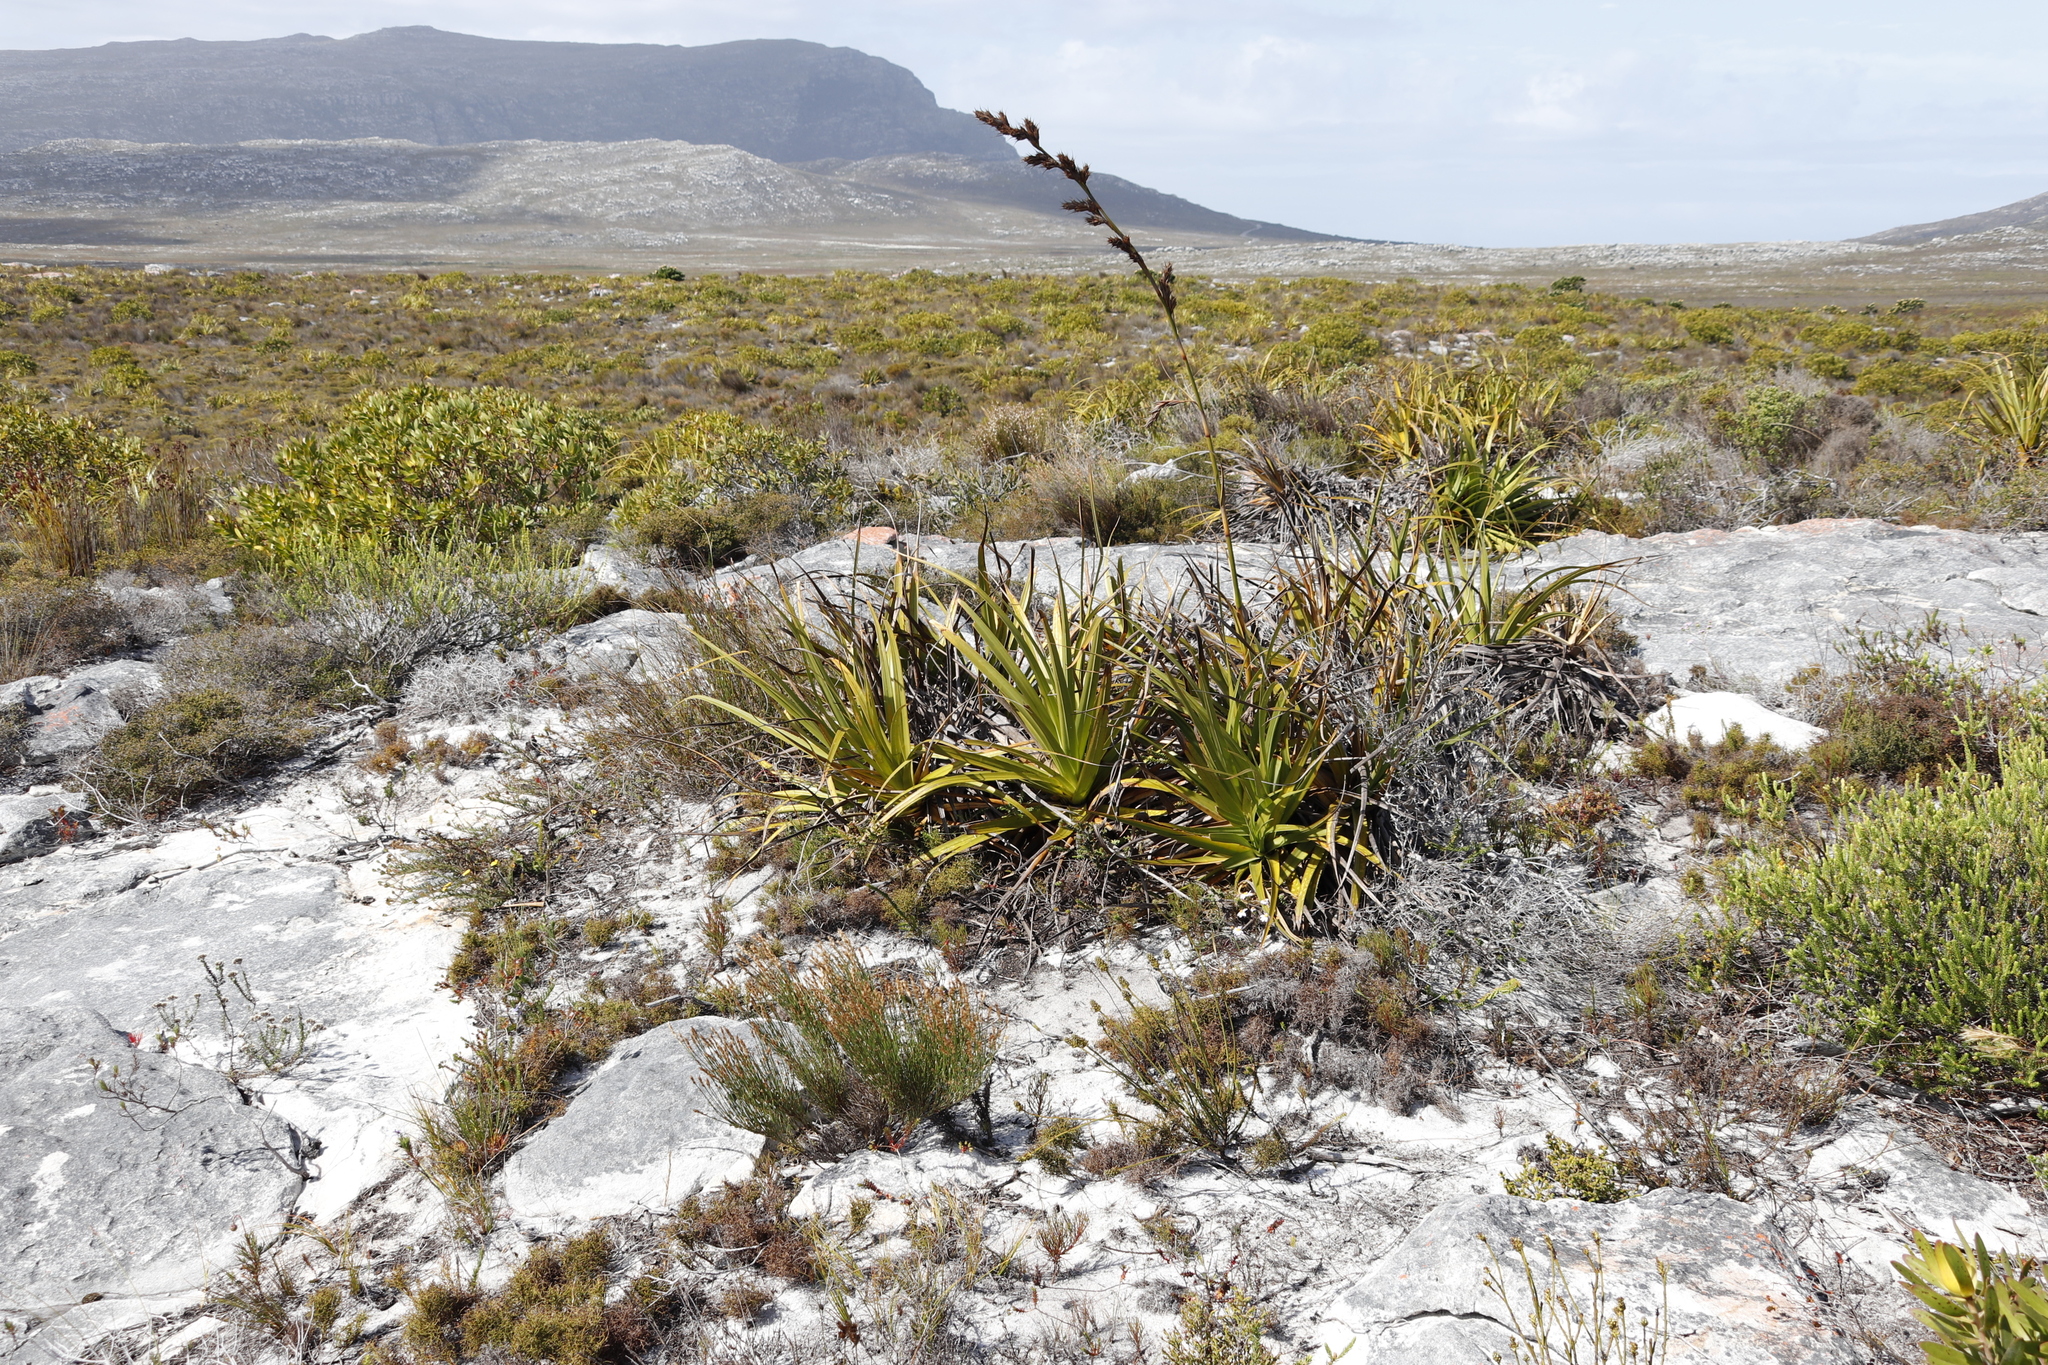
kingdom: Plantae
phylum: Tracheophyta
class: Liliopsida
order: Poales
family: Cyperaceae
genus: Tetraria
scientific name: Tetraria thermalis
